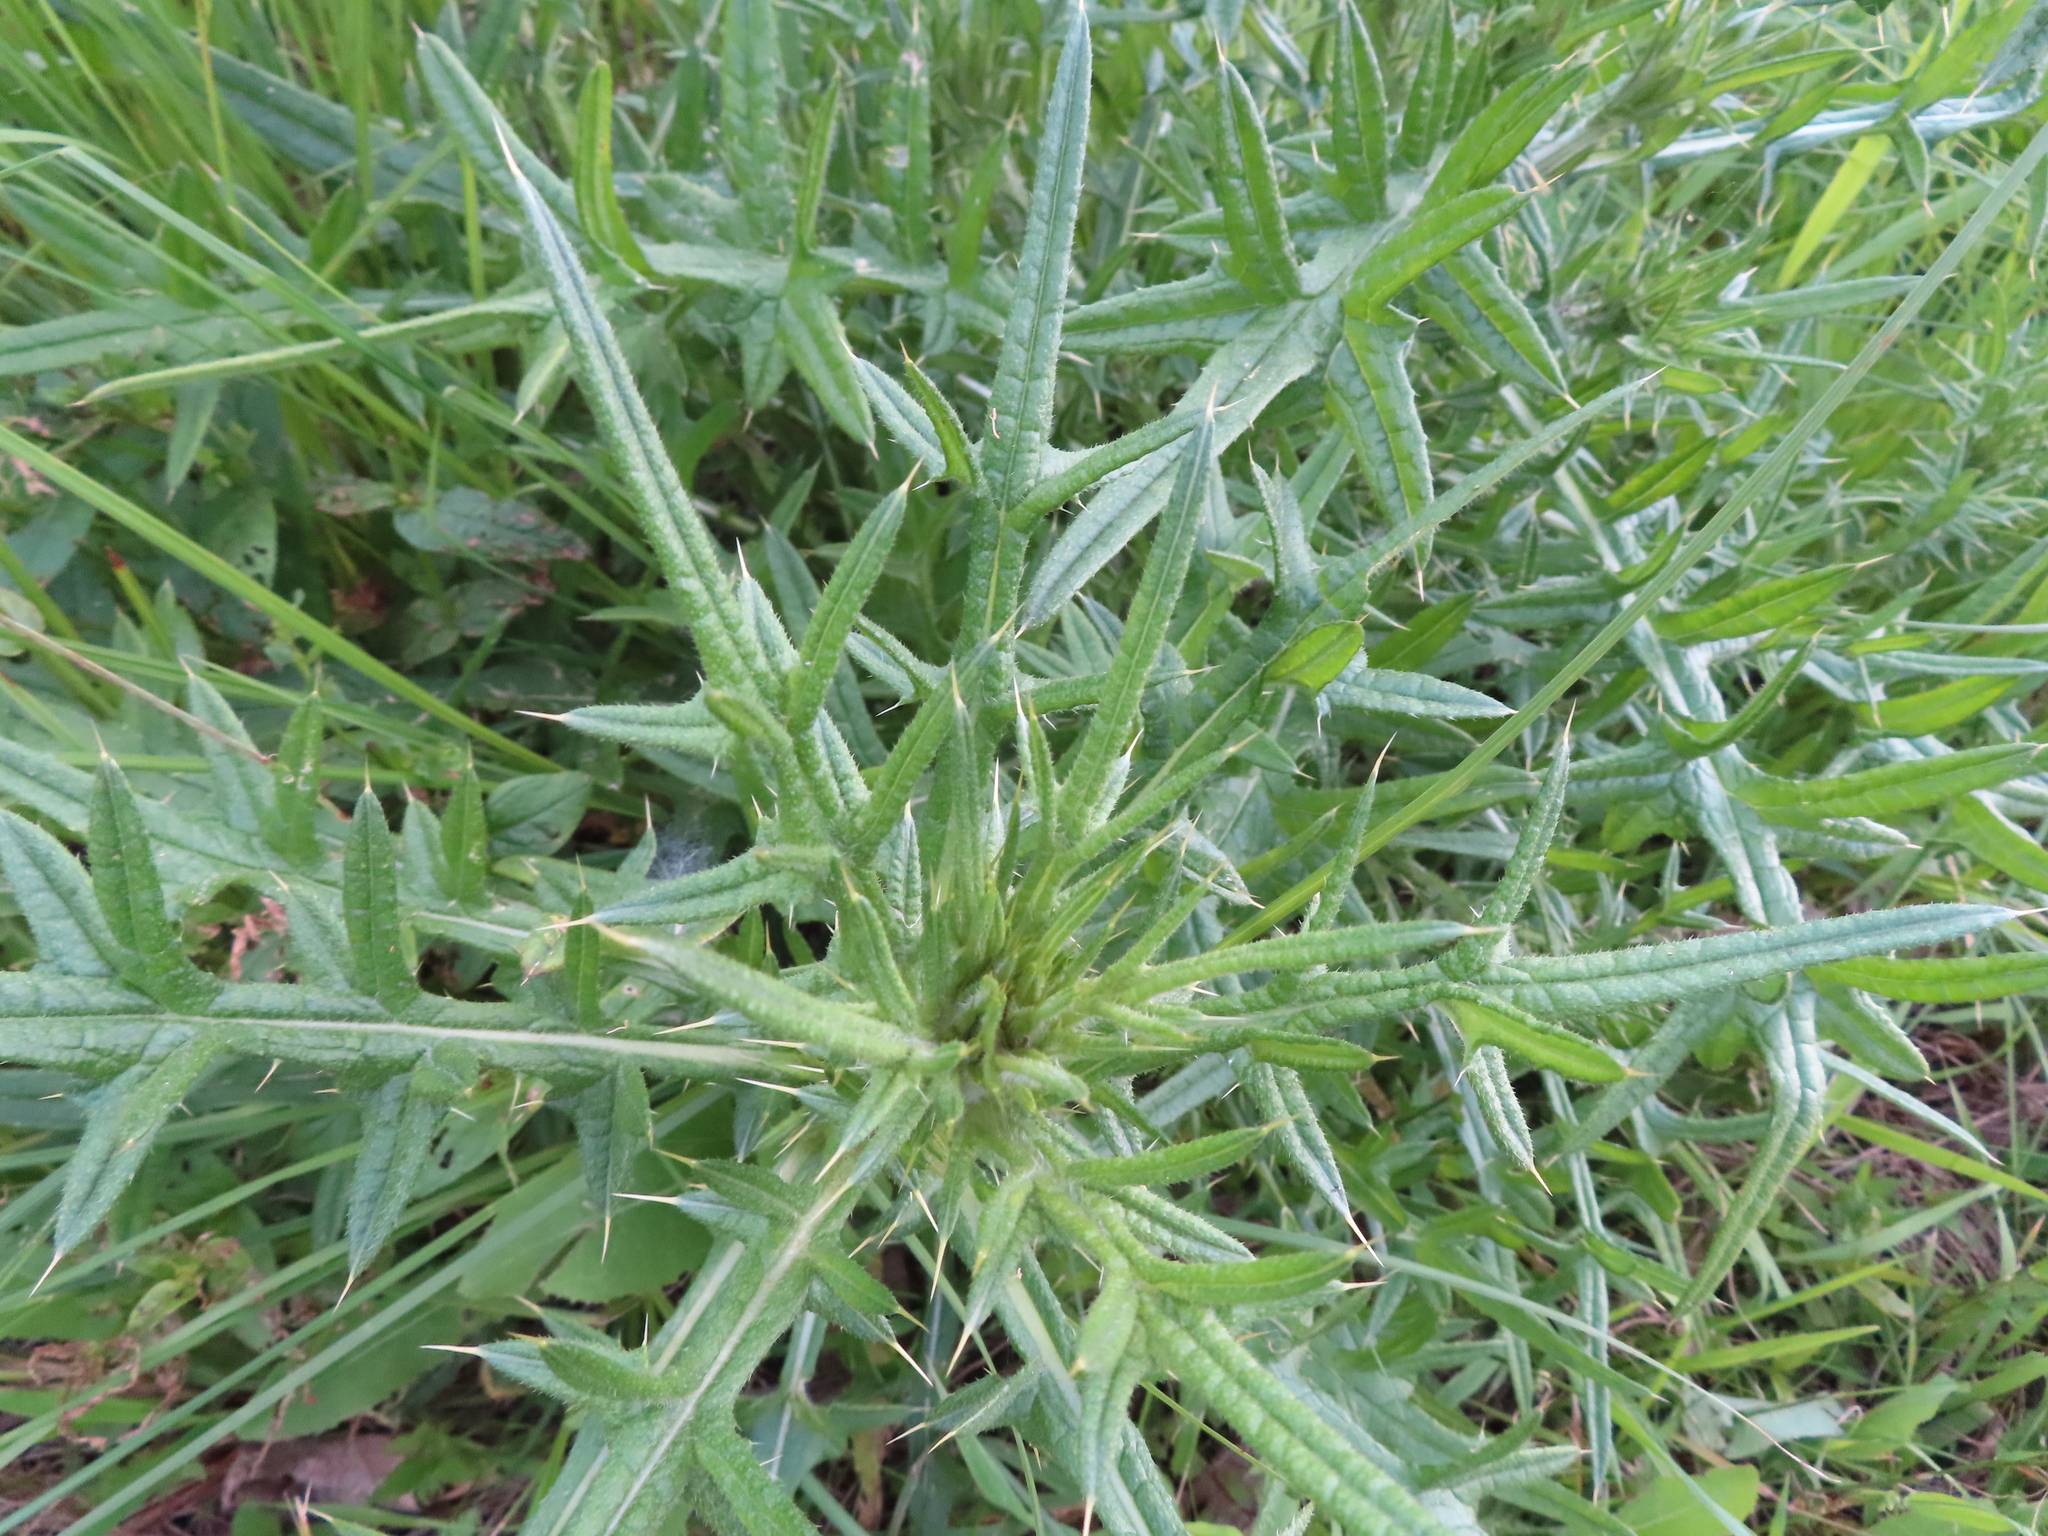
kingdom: Plantae
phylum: Tracheophyta
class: Magnoliopsida
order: Asterales
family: Asteraceae
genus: Cirsium
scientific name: Cirsium vulgare
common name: Bull thistle
